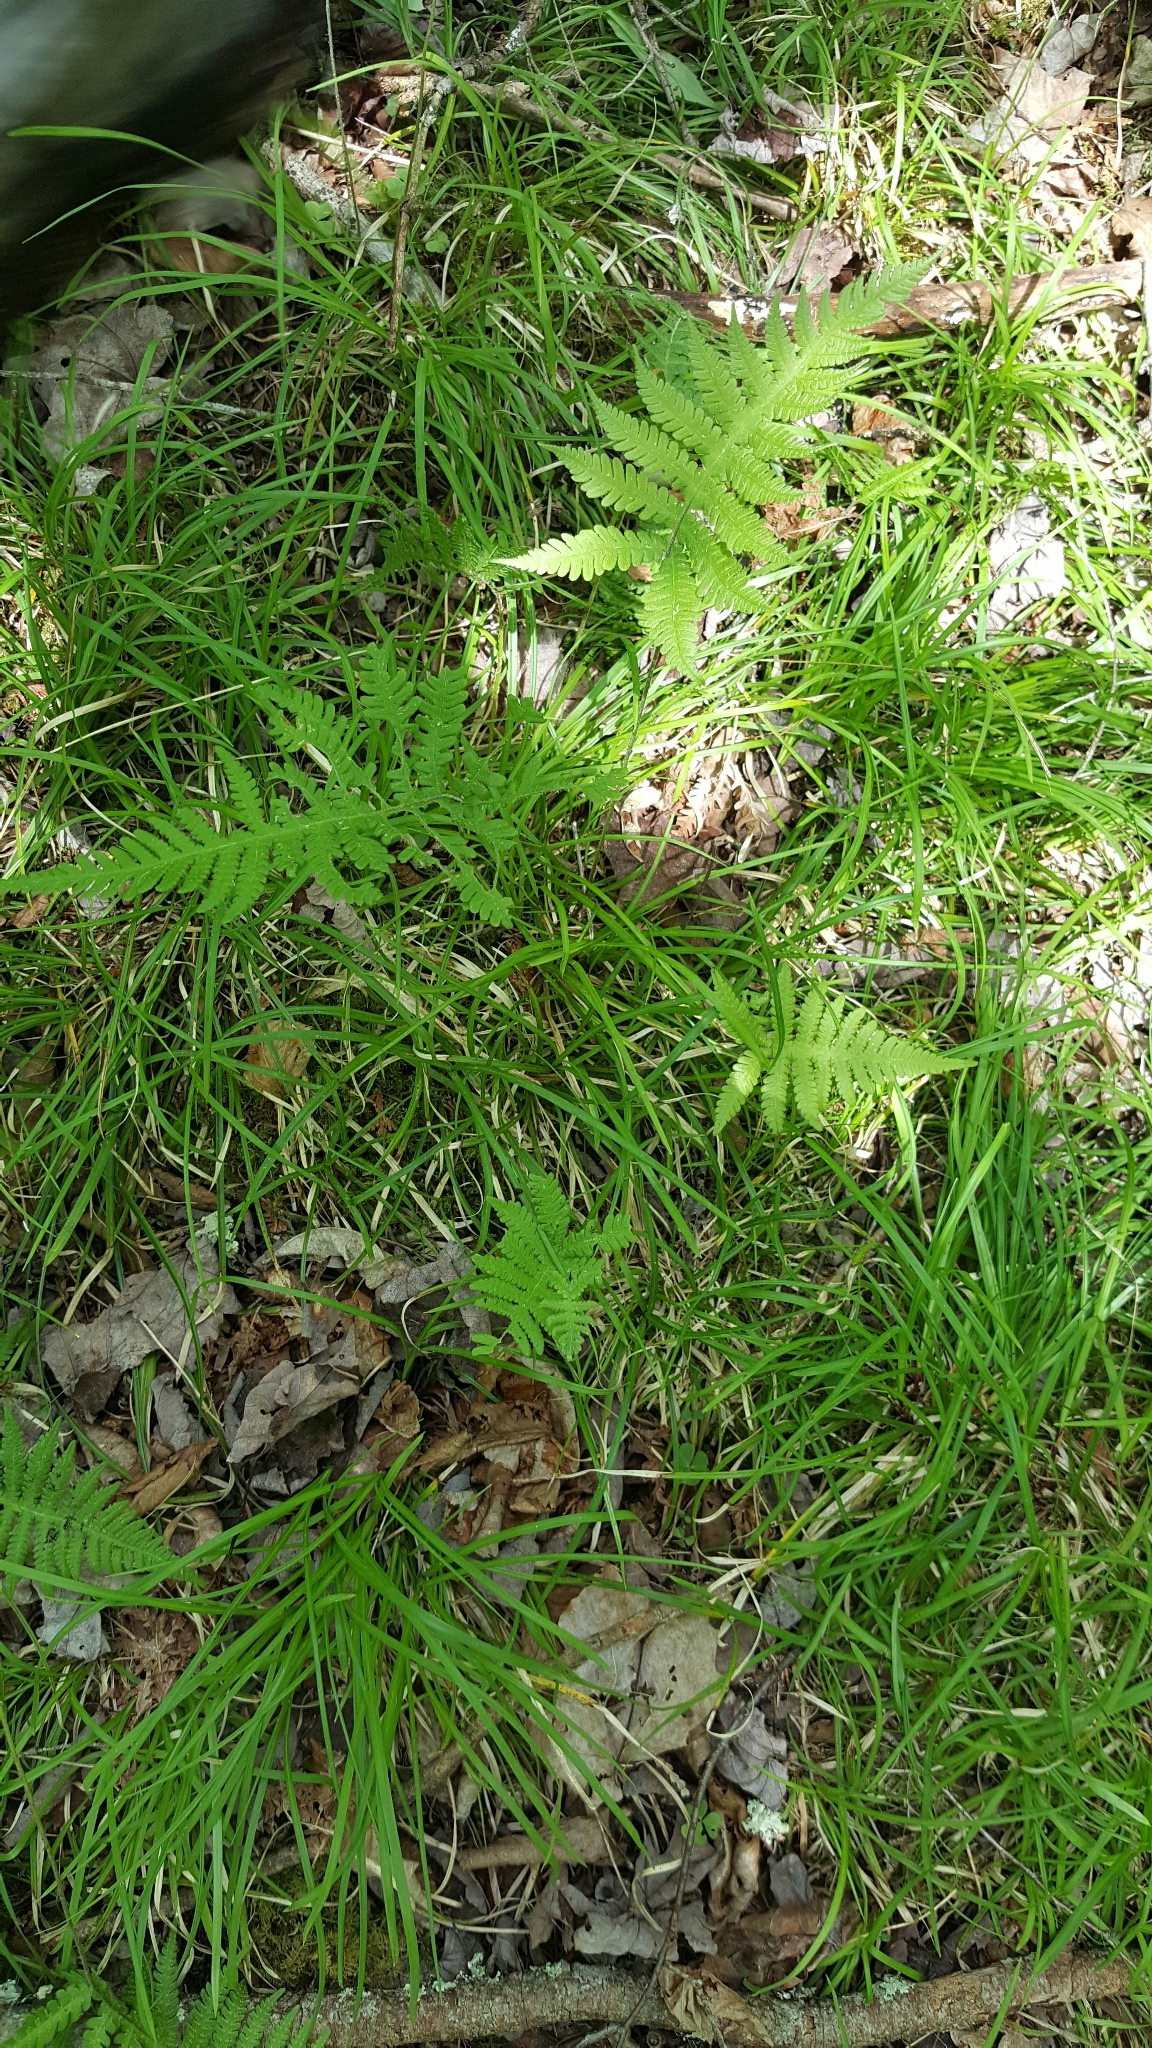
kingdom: Plantae
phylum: Tracheophyta
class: Polypodiopsida
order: Polypodiales
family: Thelypteridaceae
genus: Phegopteris
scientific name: Phegopteris connectilis
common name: Beech fern
